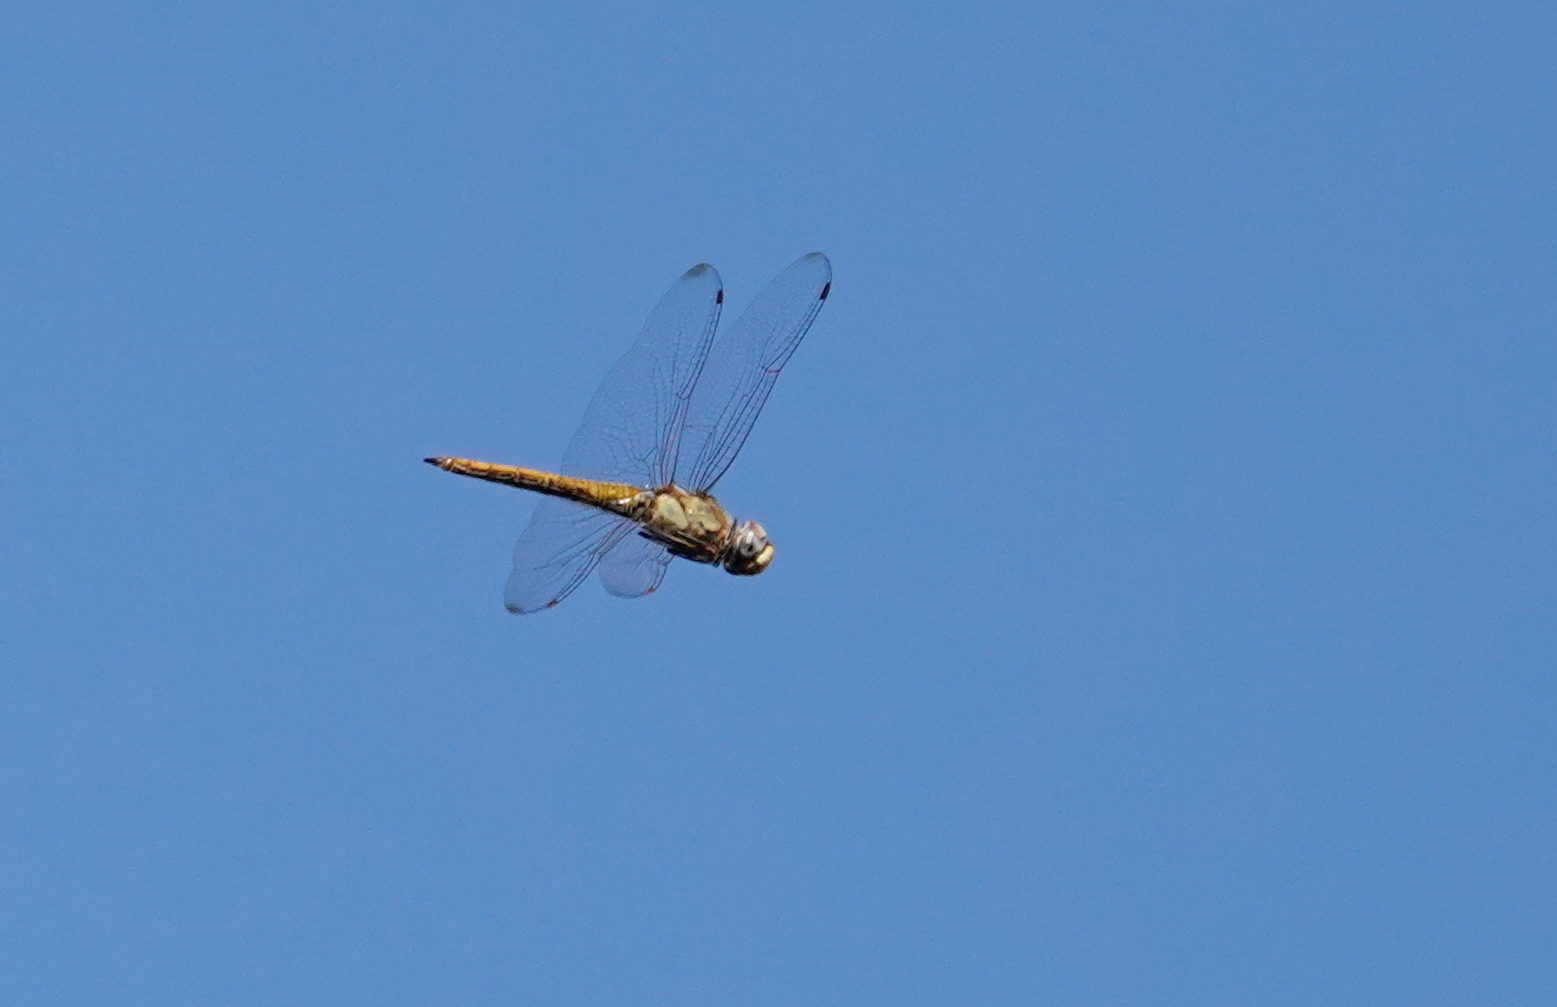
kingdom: Animalia
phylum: Arthropoda
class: Insecta
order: Odonata
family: Libellulidae
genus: Pantala
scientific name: Pantala flavescens
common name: Wandering glider
